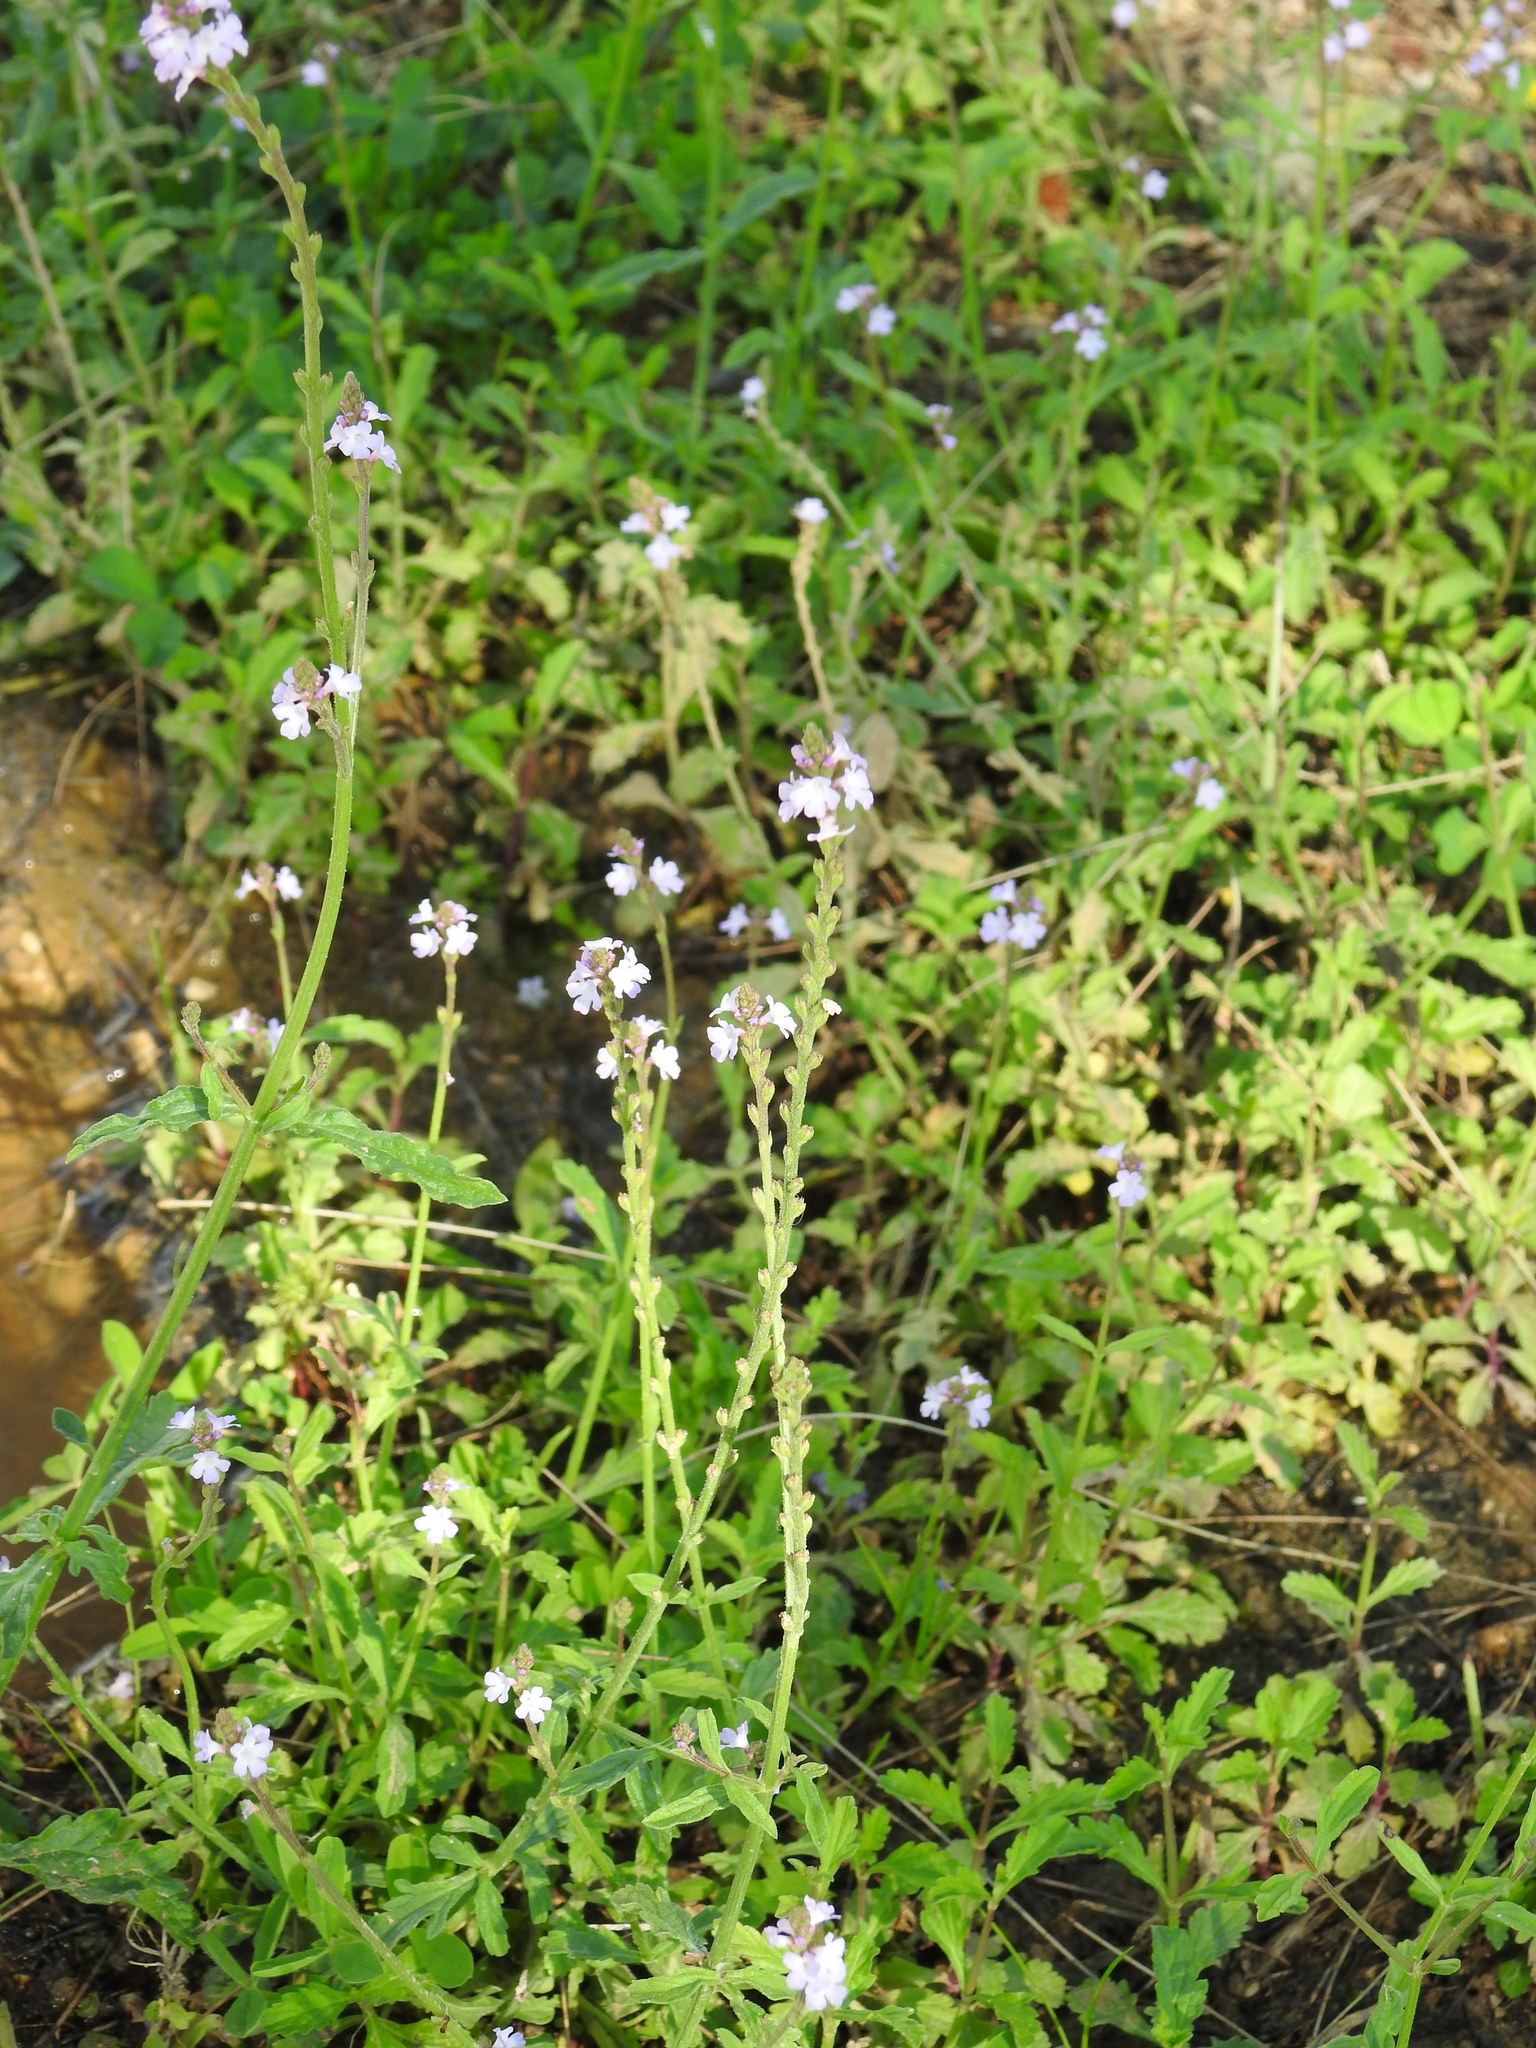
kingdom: Plantae
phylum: Tracheophyta
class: Magnoliopsida
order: Lamiales
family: Verbenaceae
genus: Verbena
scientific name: Verbena officinalis
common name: Vervain
